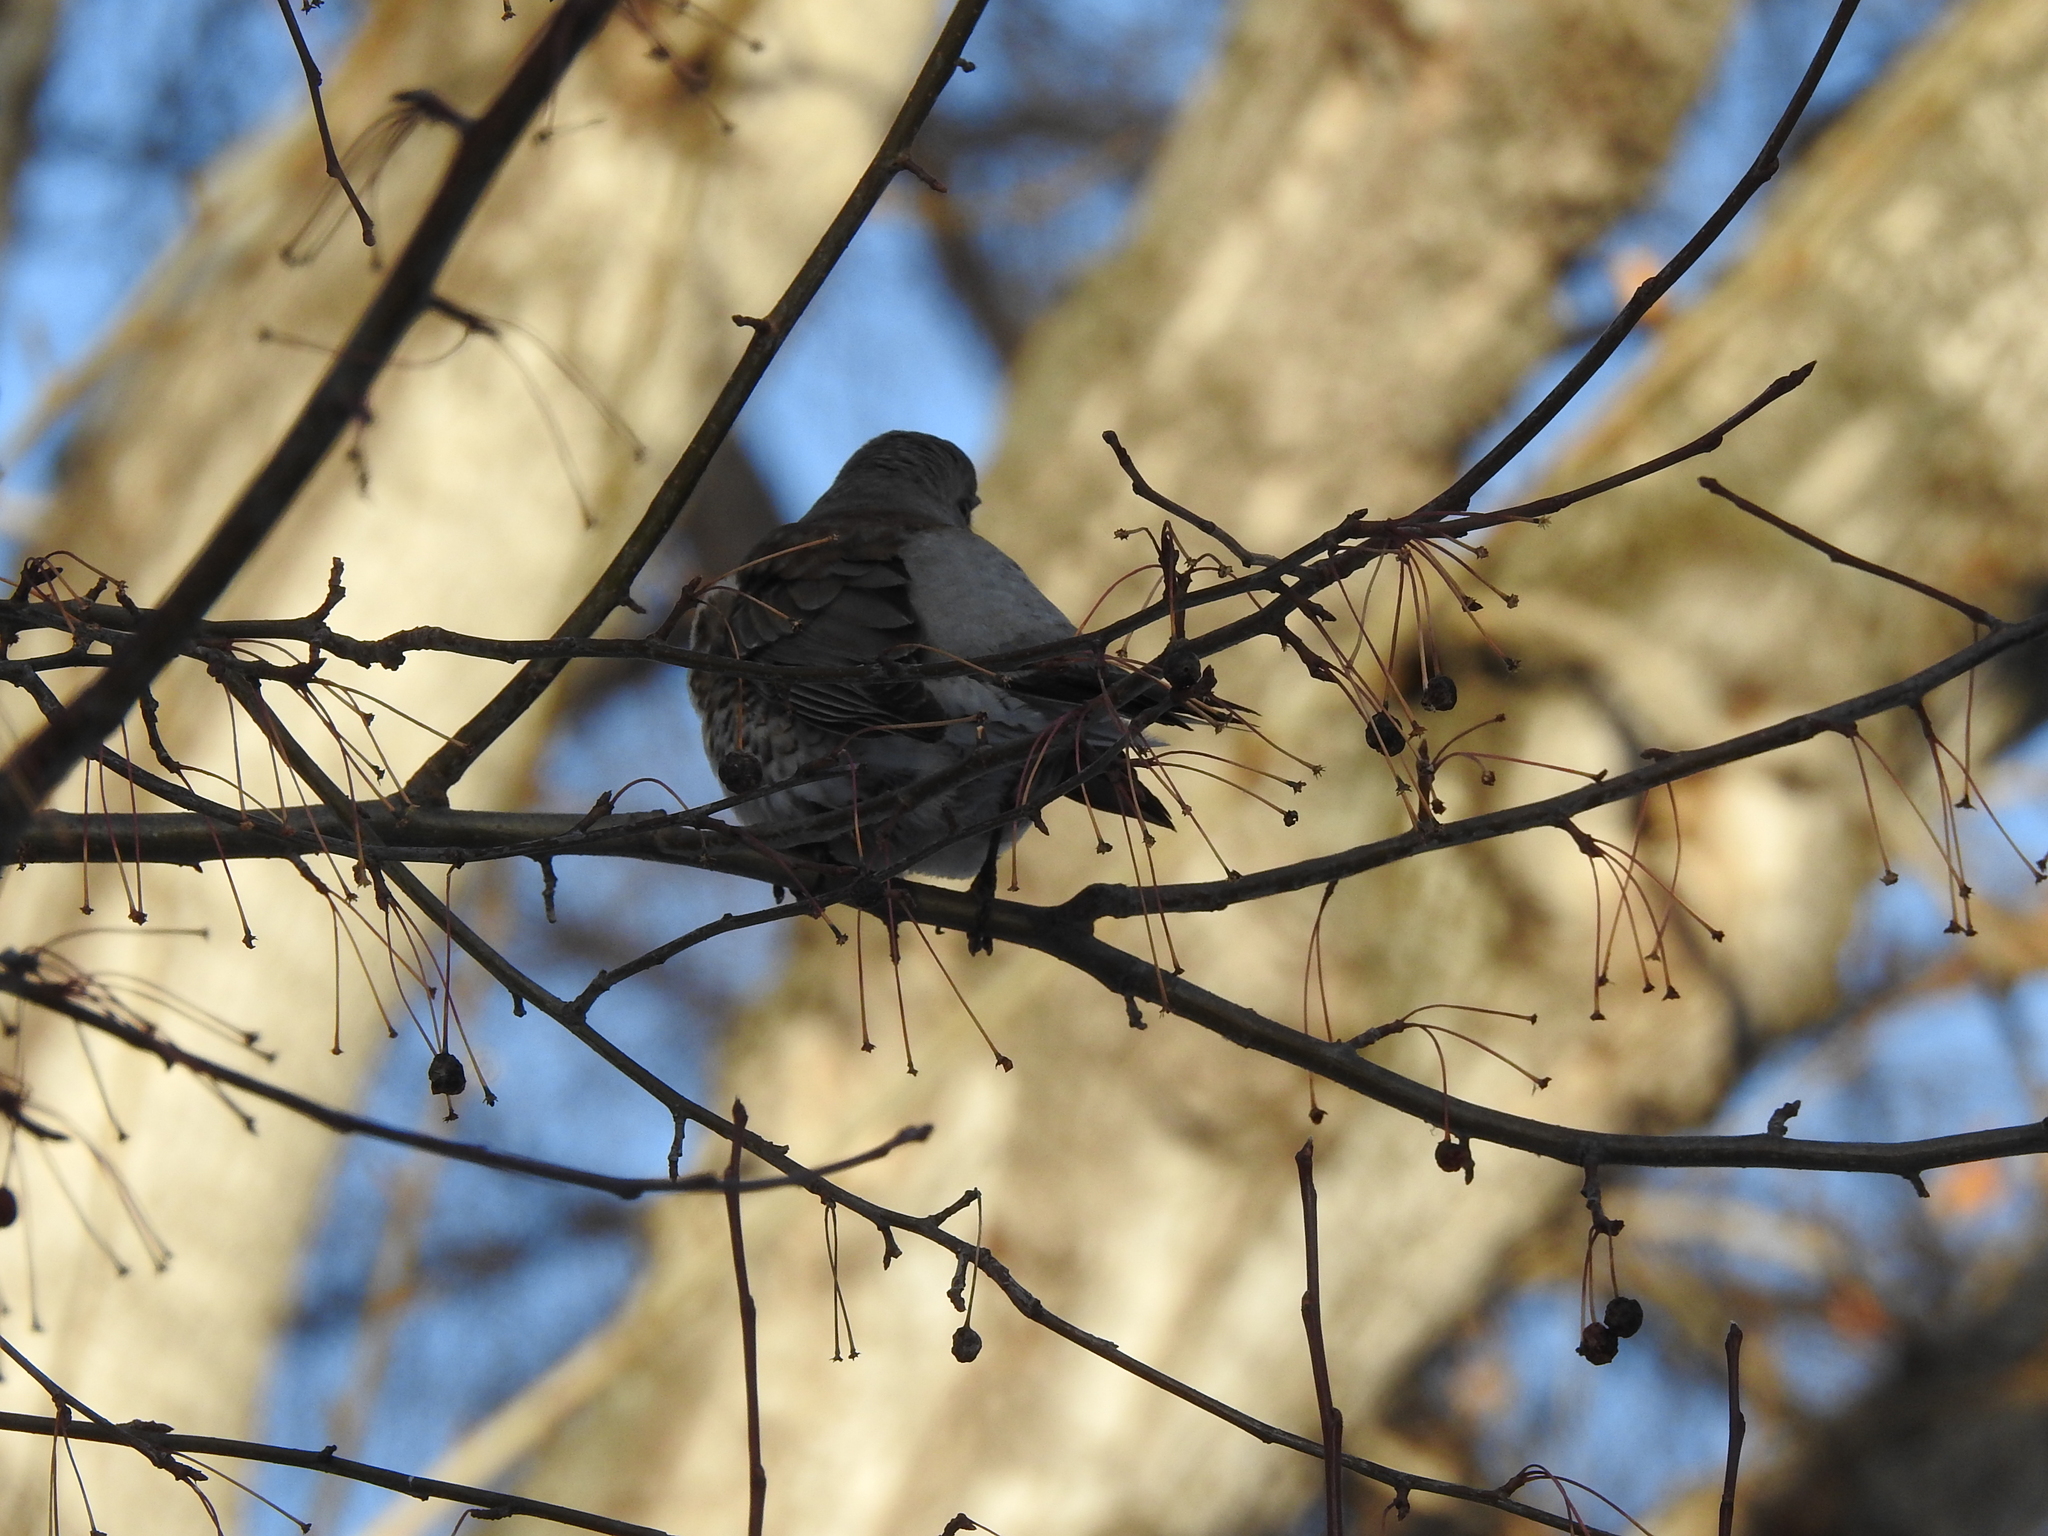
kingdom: Animalia
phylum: Chordata
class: Aves
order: Passeriformes
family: Turdidae
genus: Turdus
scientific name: Turdus pilaris
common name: Fieldfare
